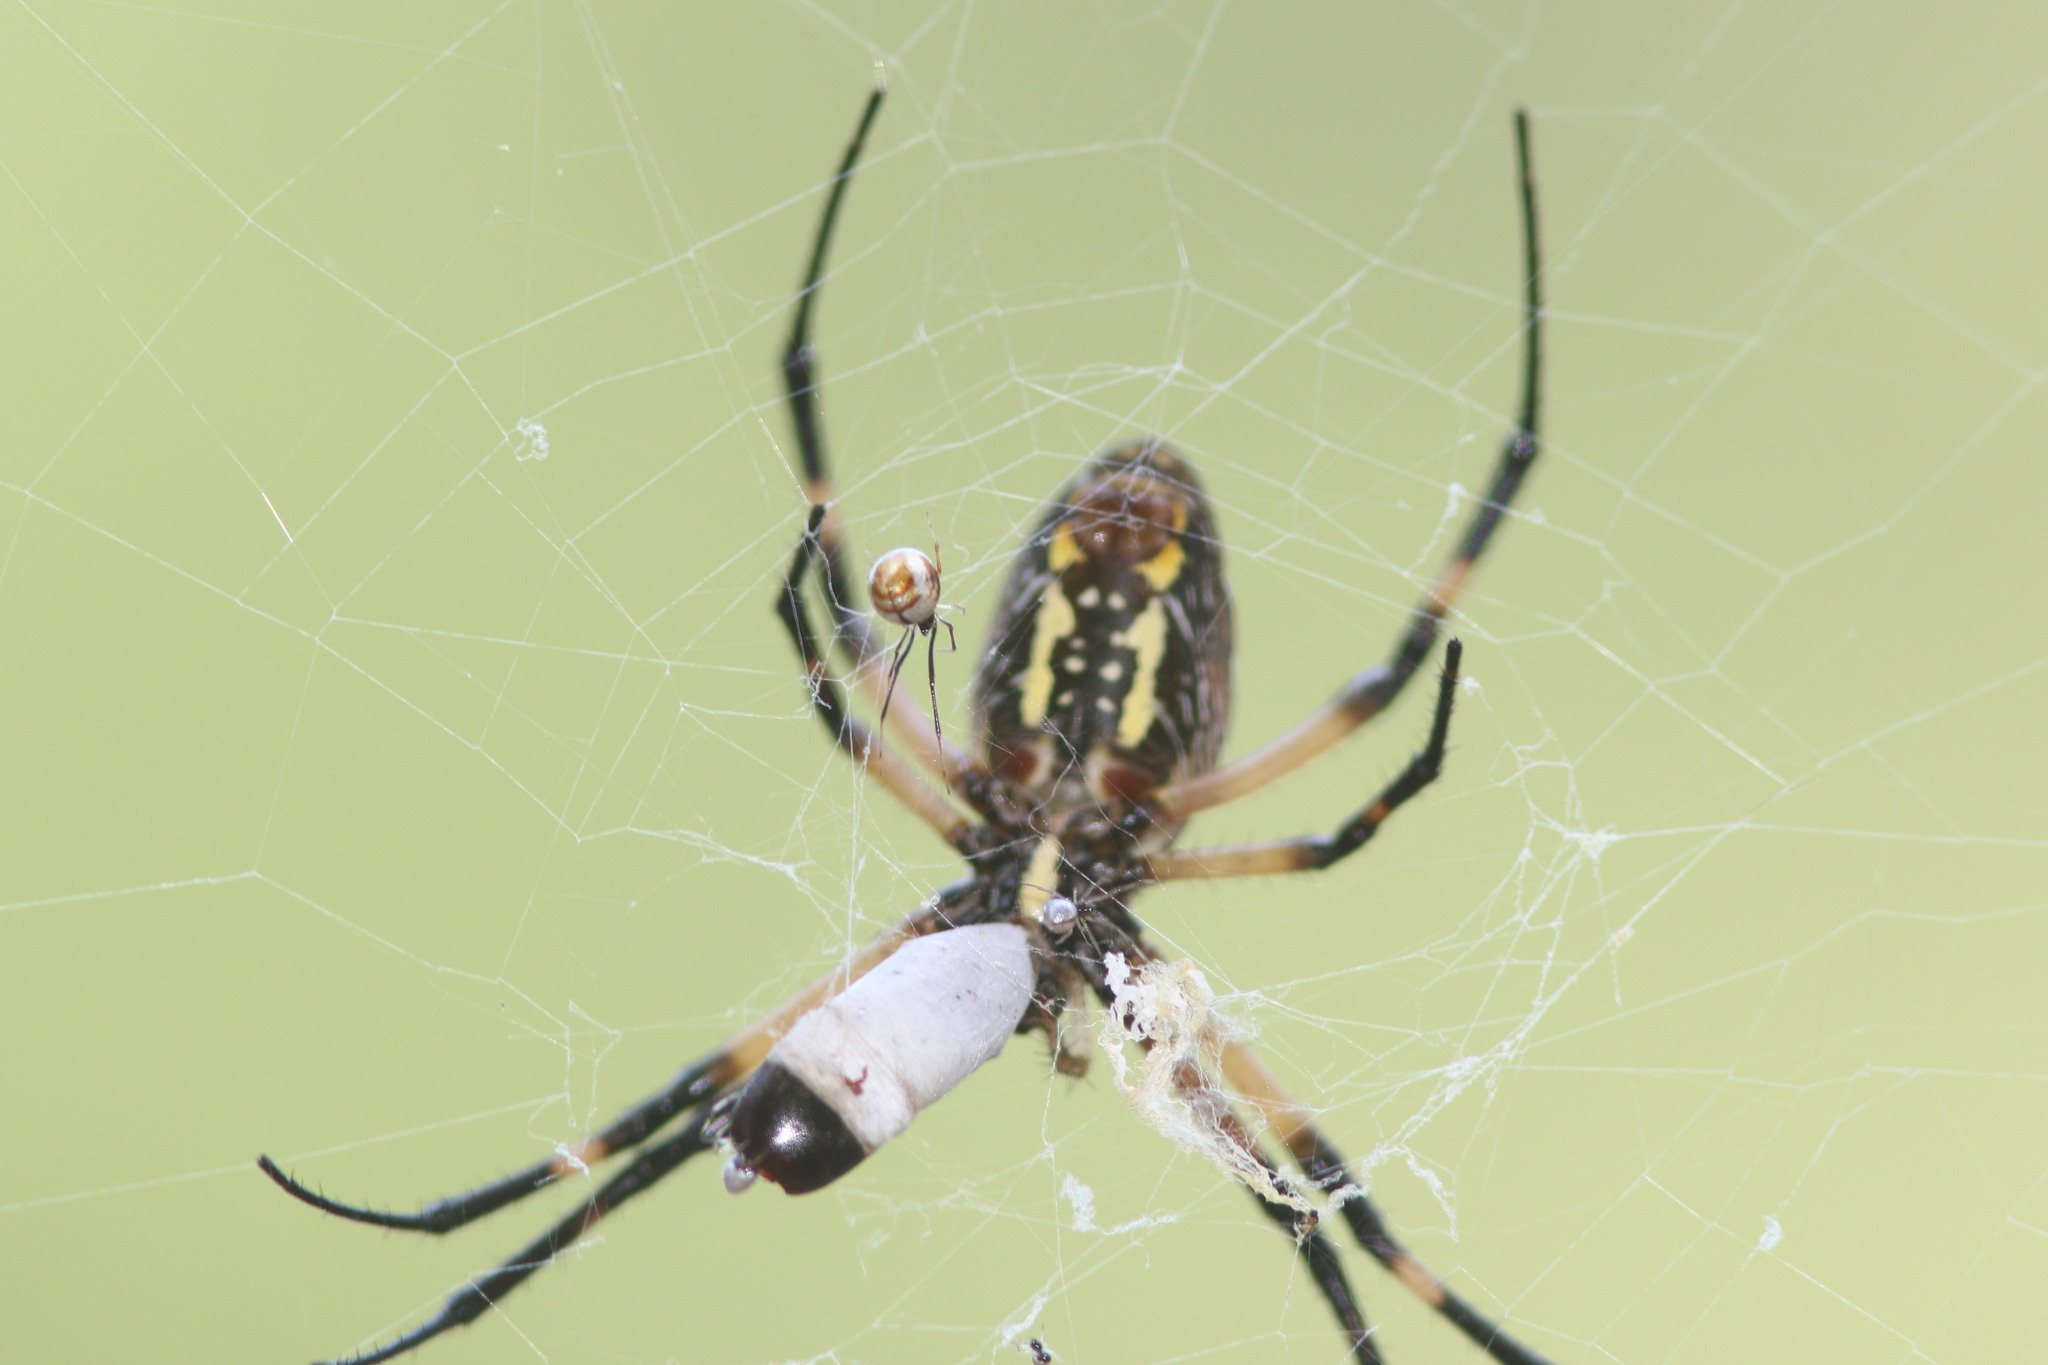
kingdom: Animalia
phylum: Arthropoda
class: Arachnida
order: Araneae
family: Araneidae
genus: Argiope
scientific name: Argiope aurantia
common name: Orb weavers
